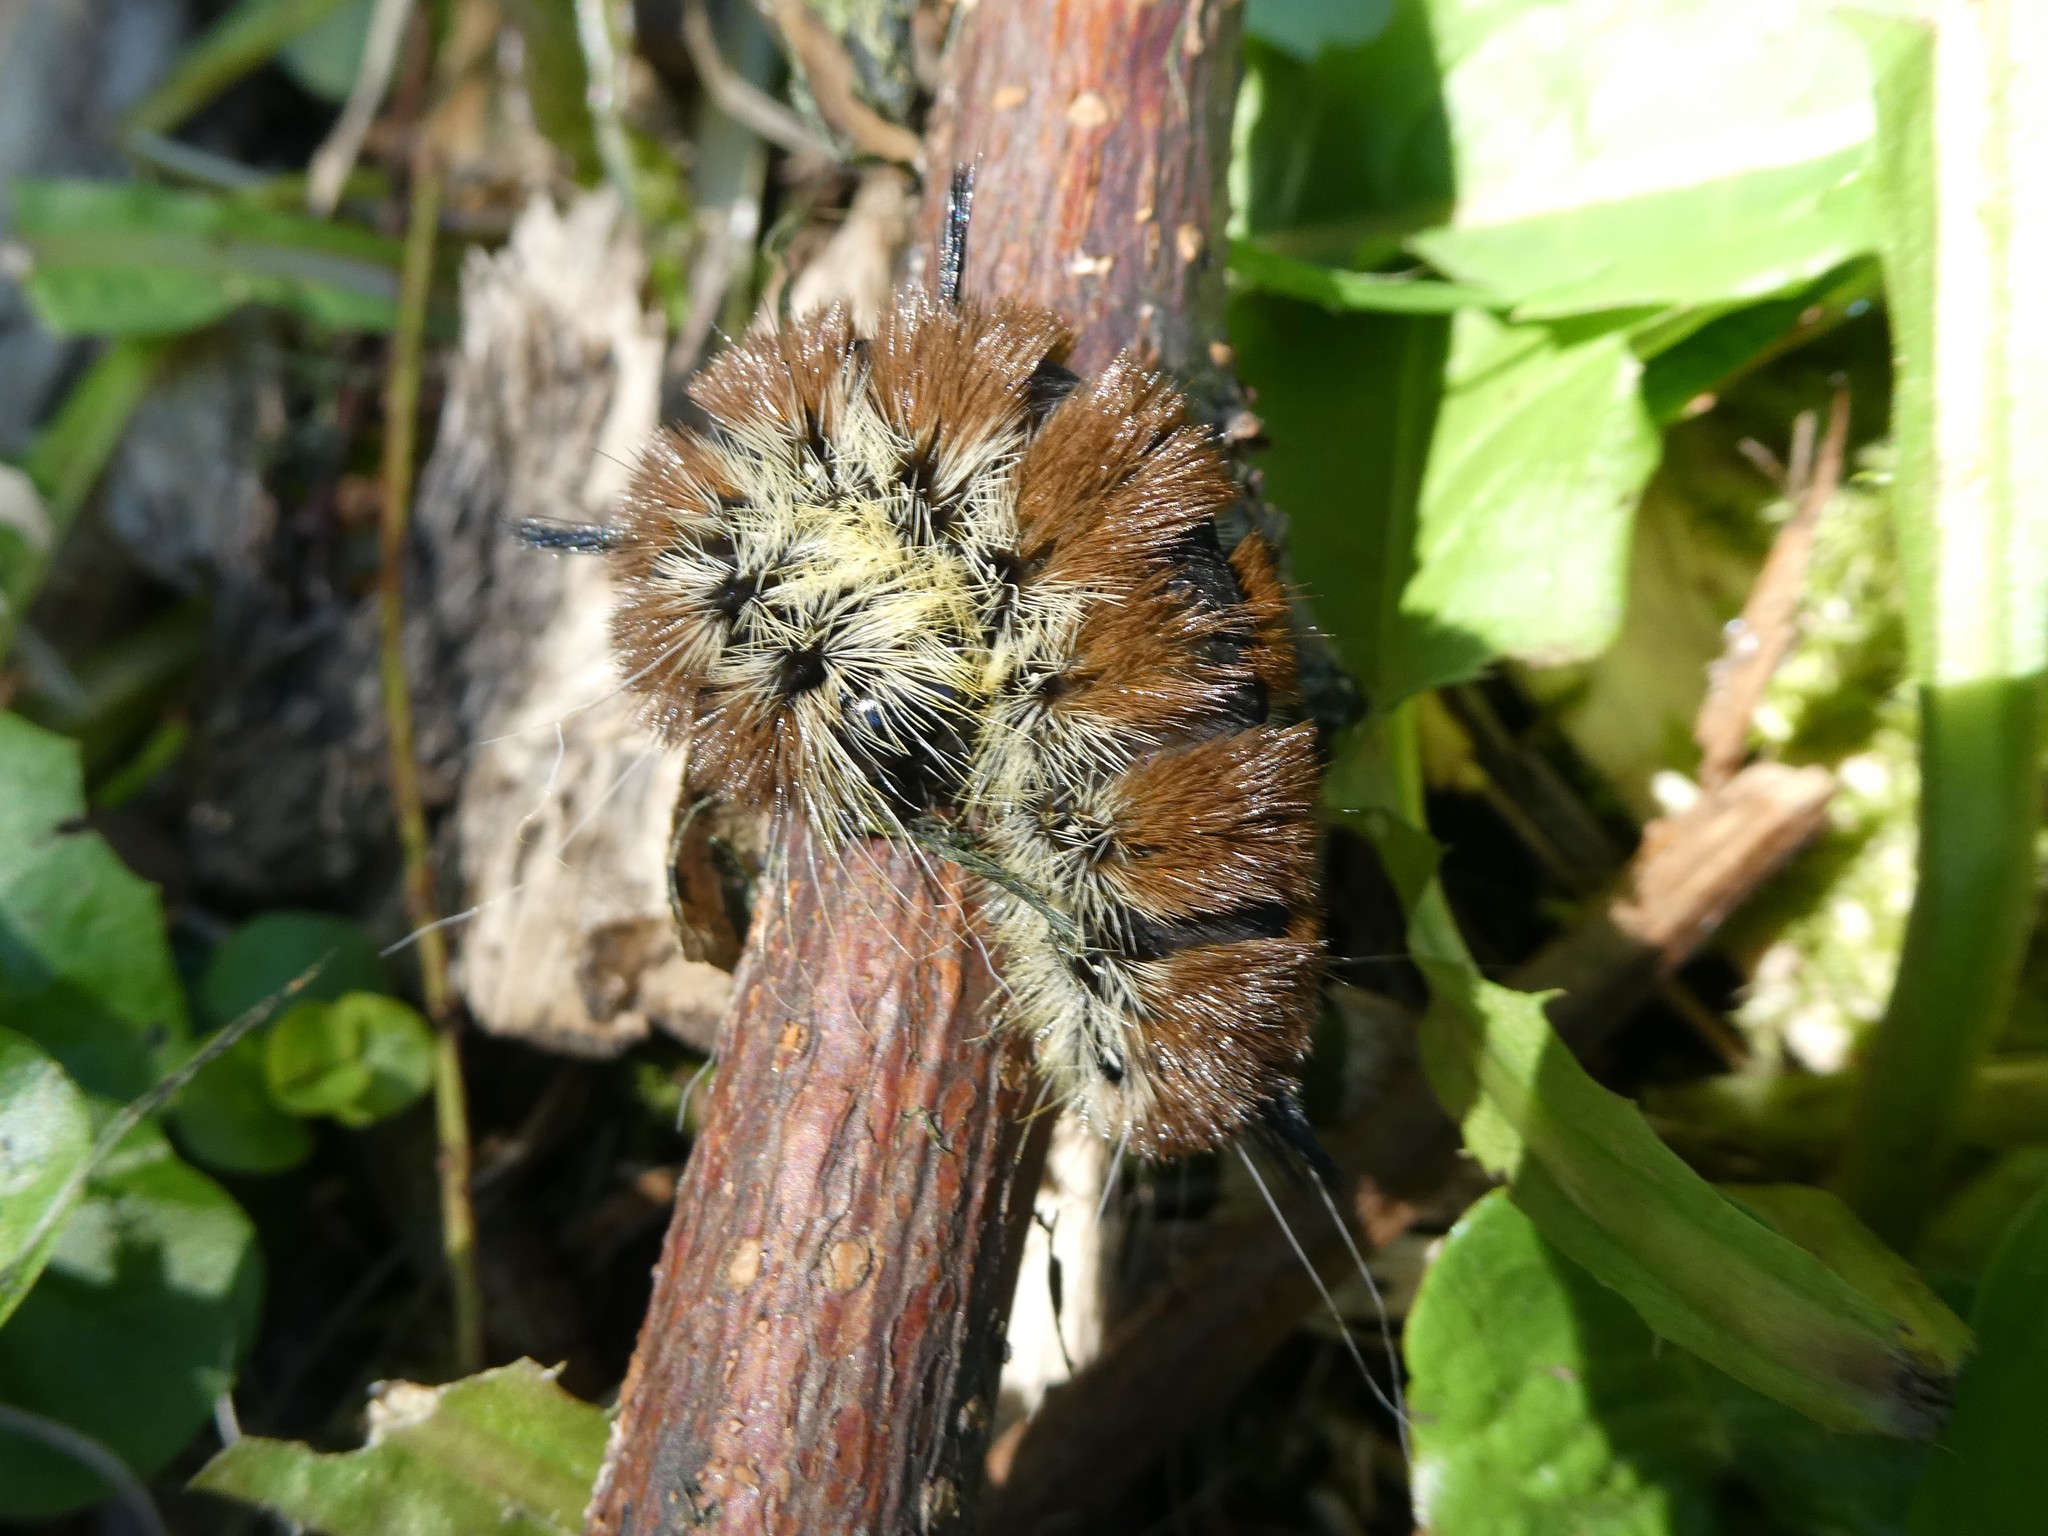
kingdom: Animalia
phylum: Arthropoda
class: Insecta
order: Lepidoptera
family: Noctuidae
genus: Acronicta
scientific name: Acronicta insita
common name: Large gray dagger
